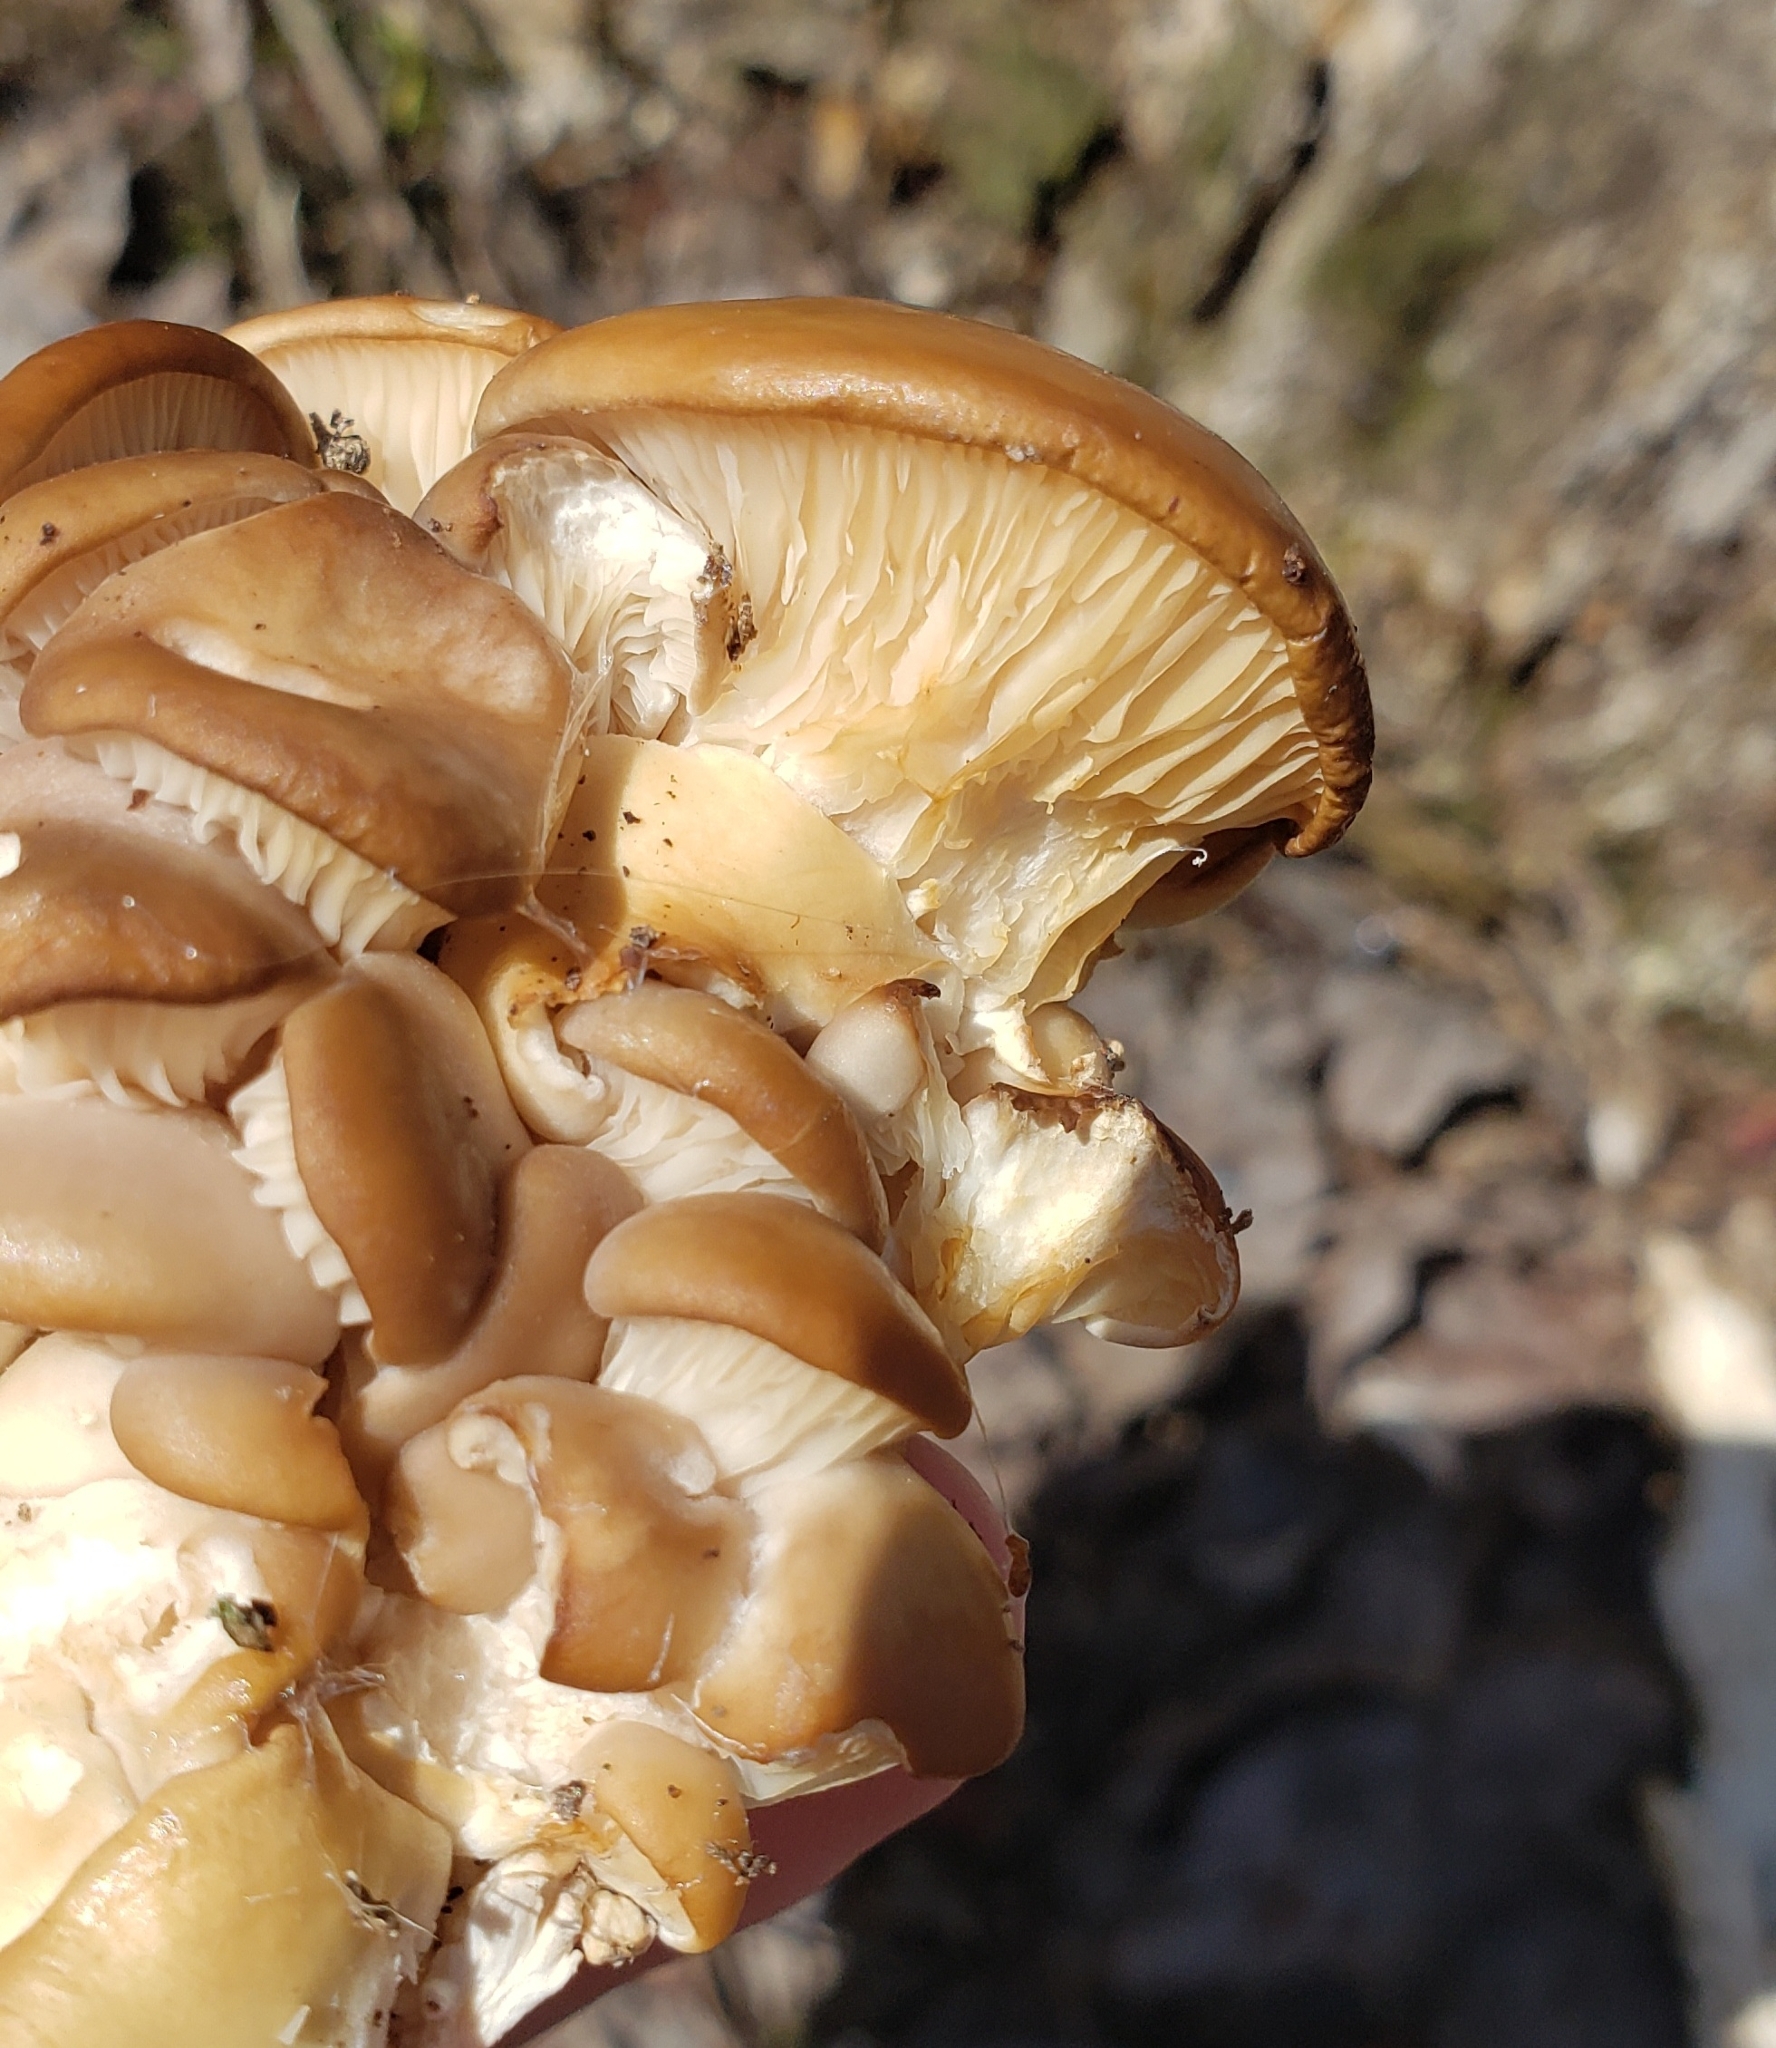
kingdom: Fungi
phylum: Basidiomycota
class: Agaricomycetes
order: Agaricales
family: Pleurotaceae
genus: Pleurotus
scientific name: Pleurotus ostreatus
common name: Oyster mushroom
